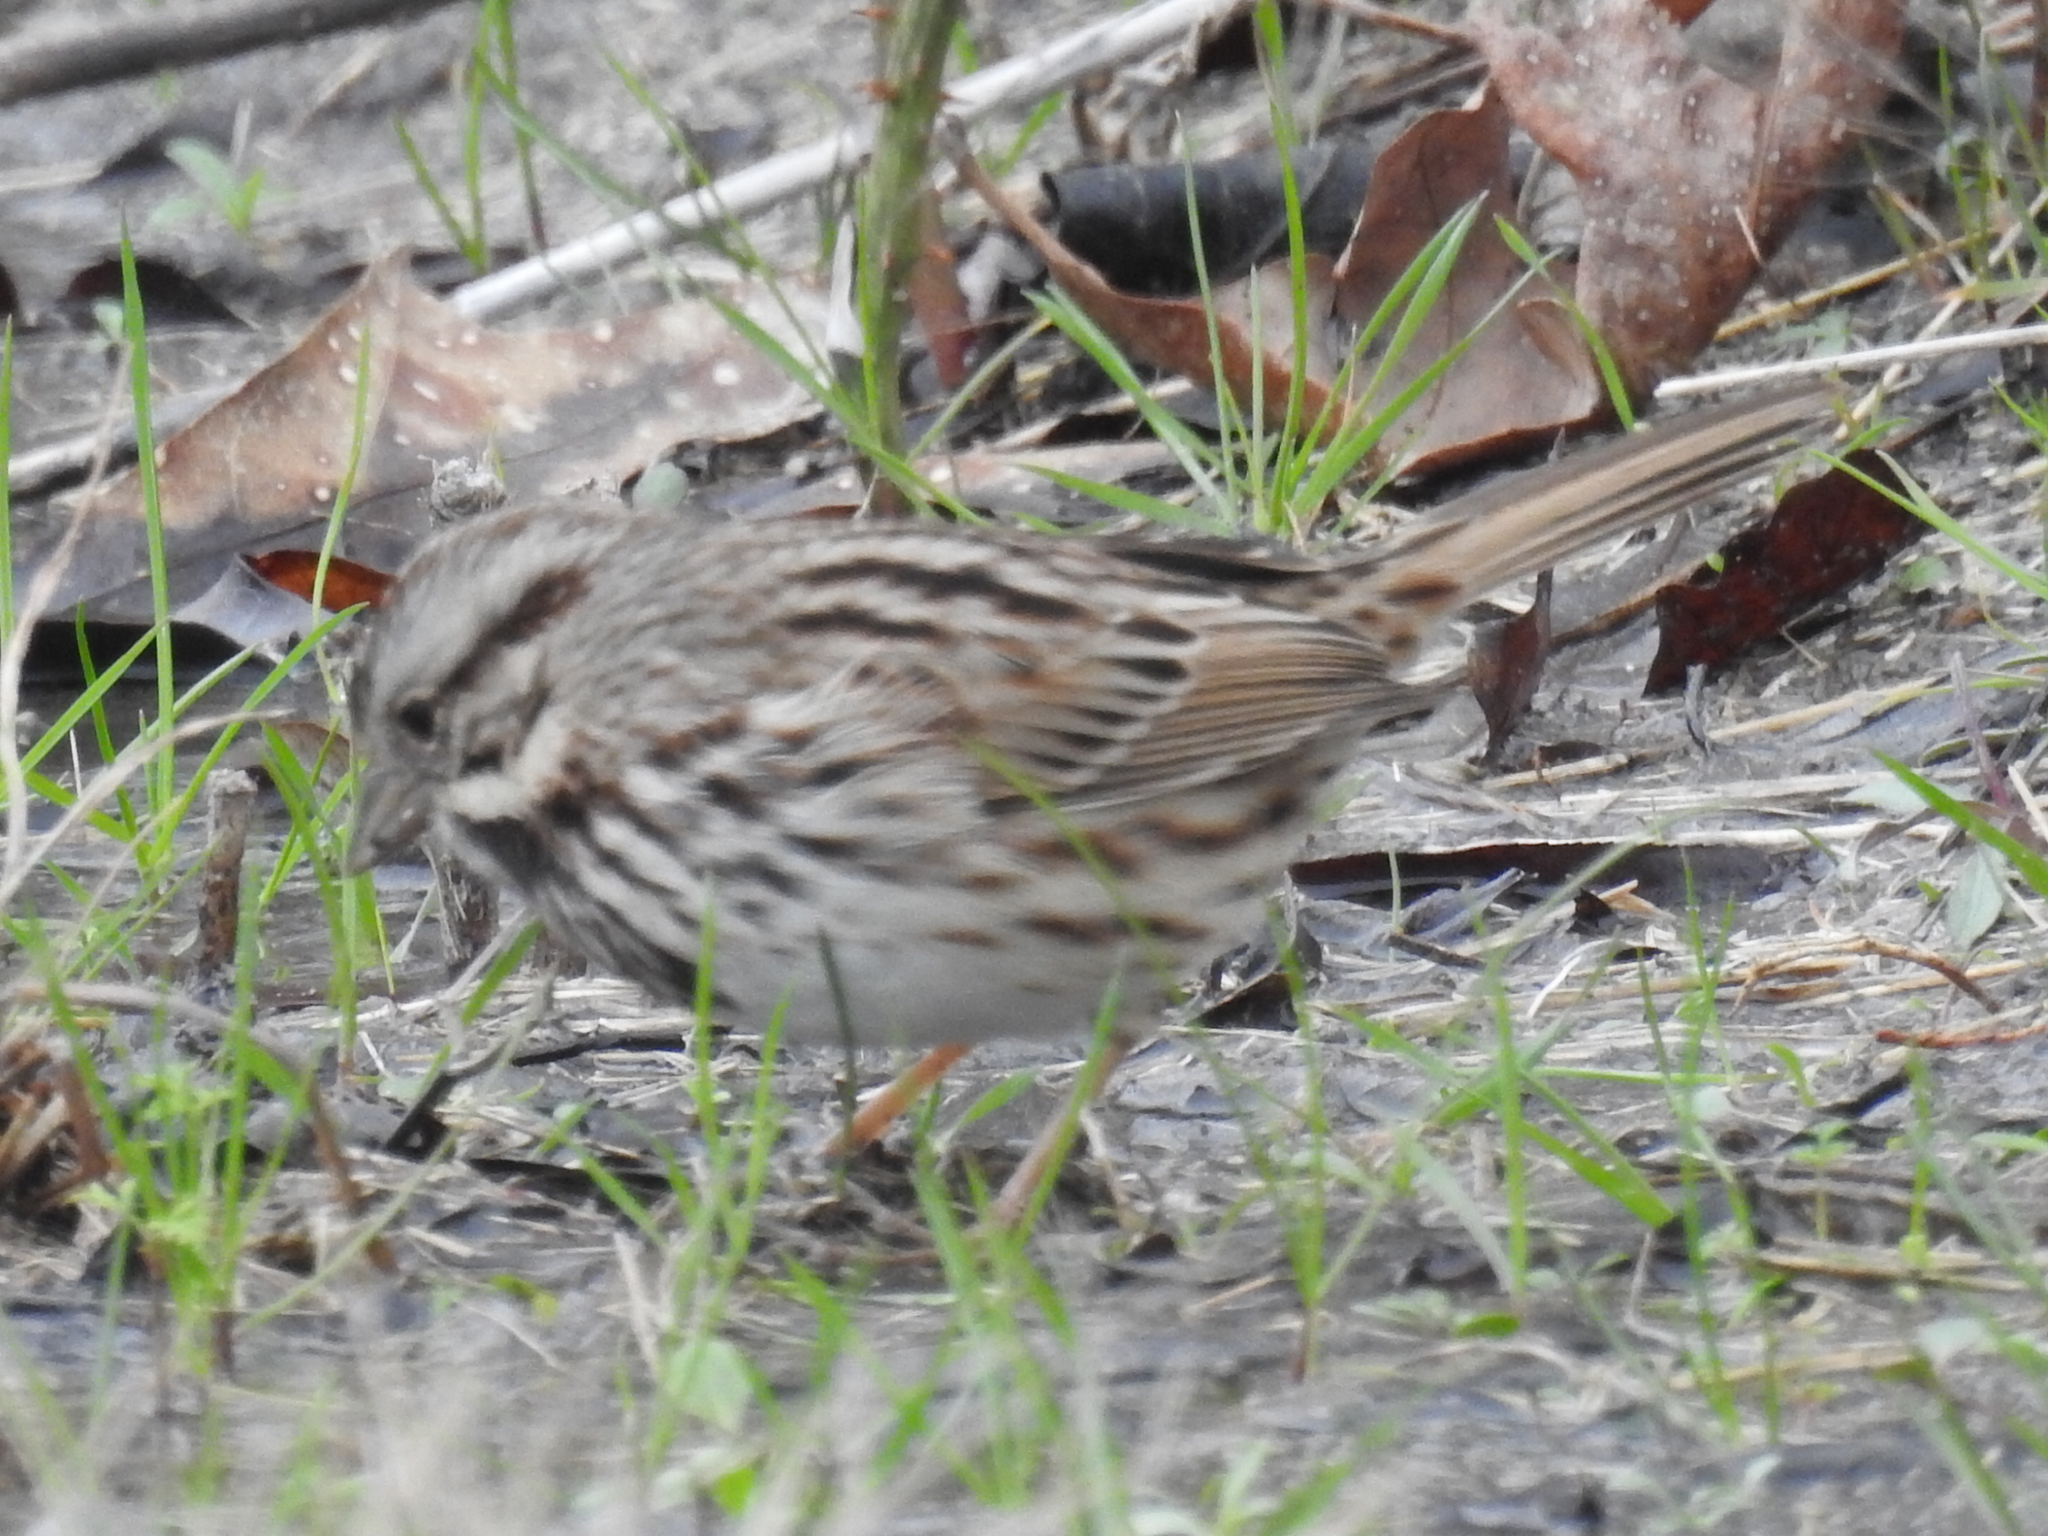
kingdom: Animalia
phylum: Chordata
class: Aves
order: Passeriformes
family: Passerellidae
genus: Melospiza
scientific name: Melospiza melodia
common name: Song sparrow
